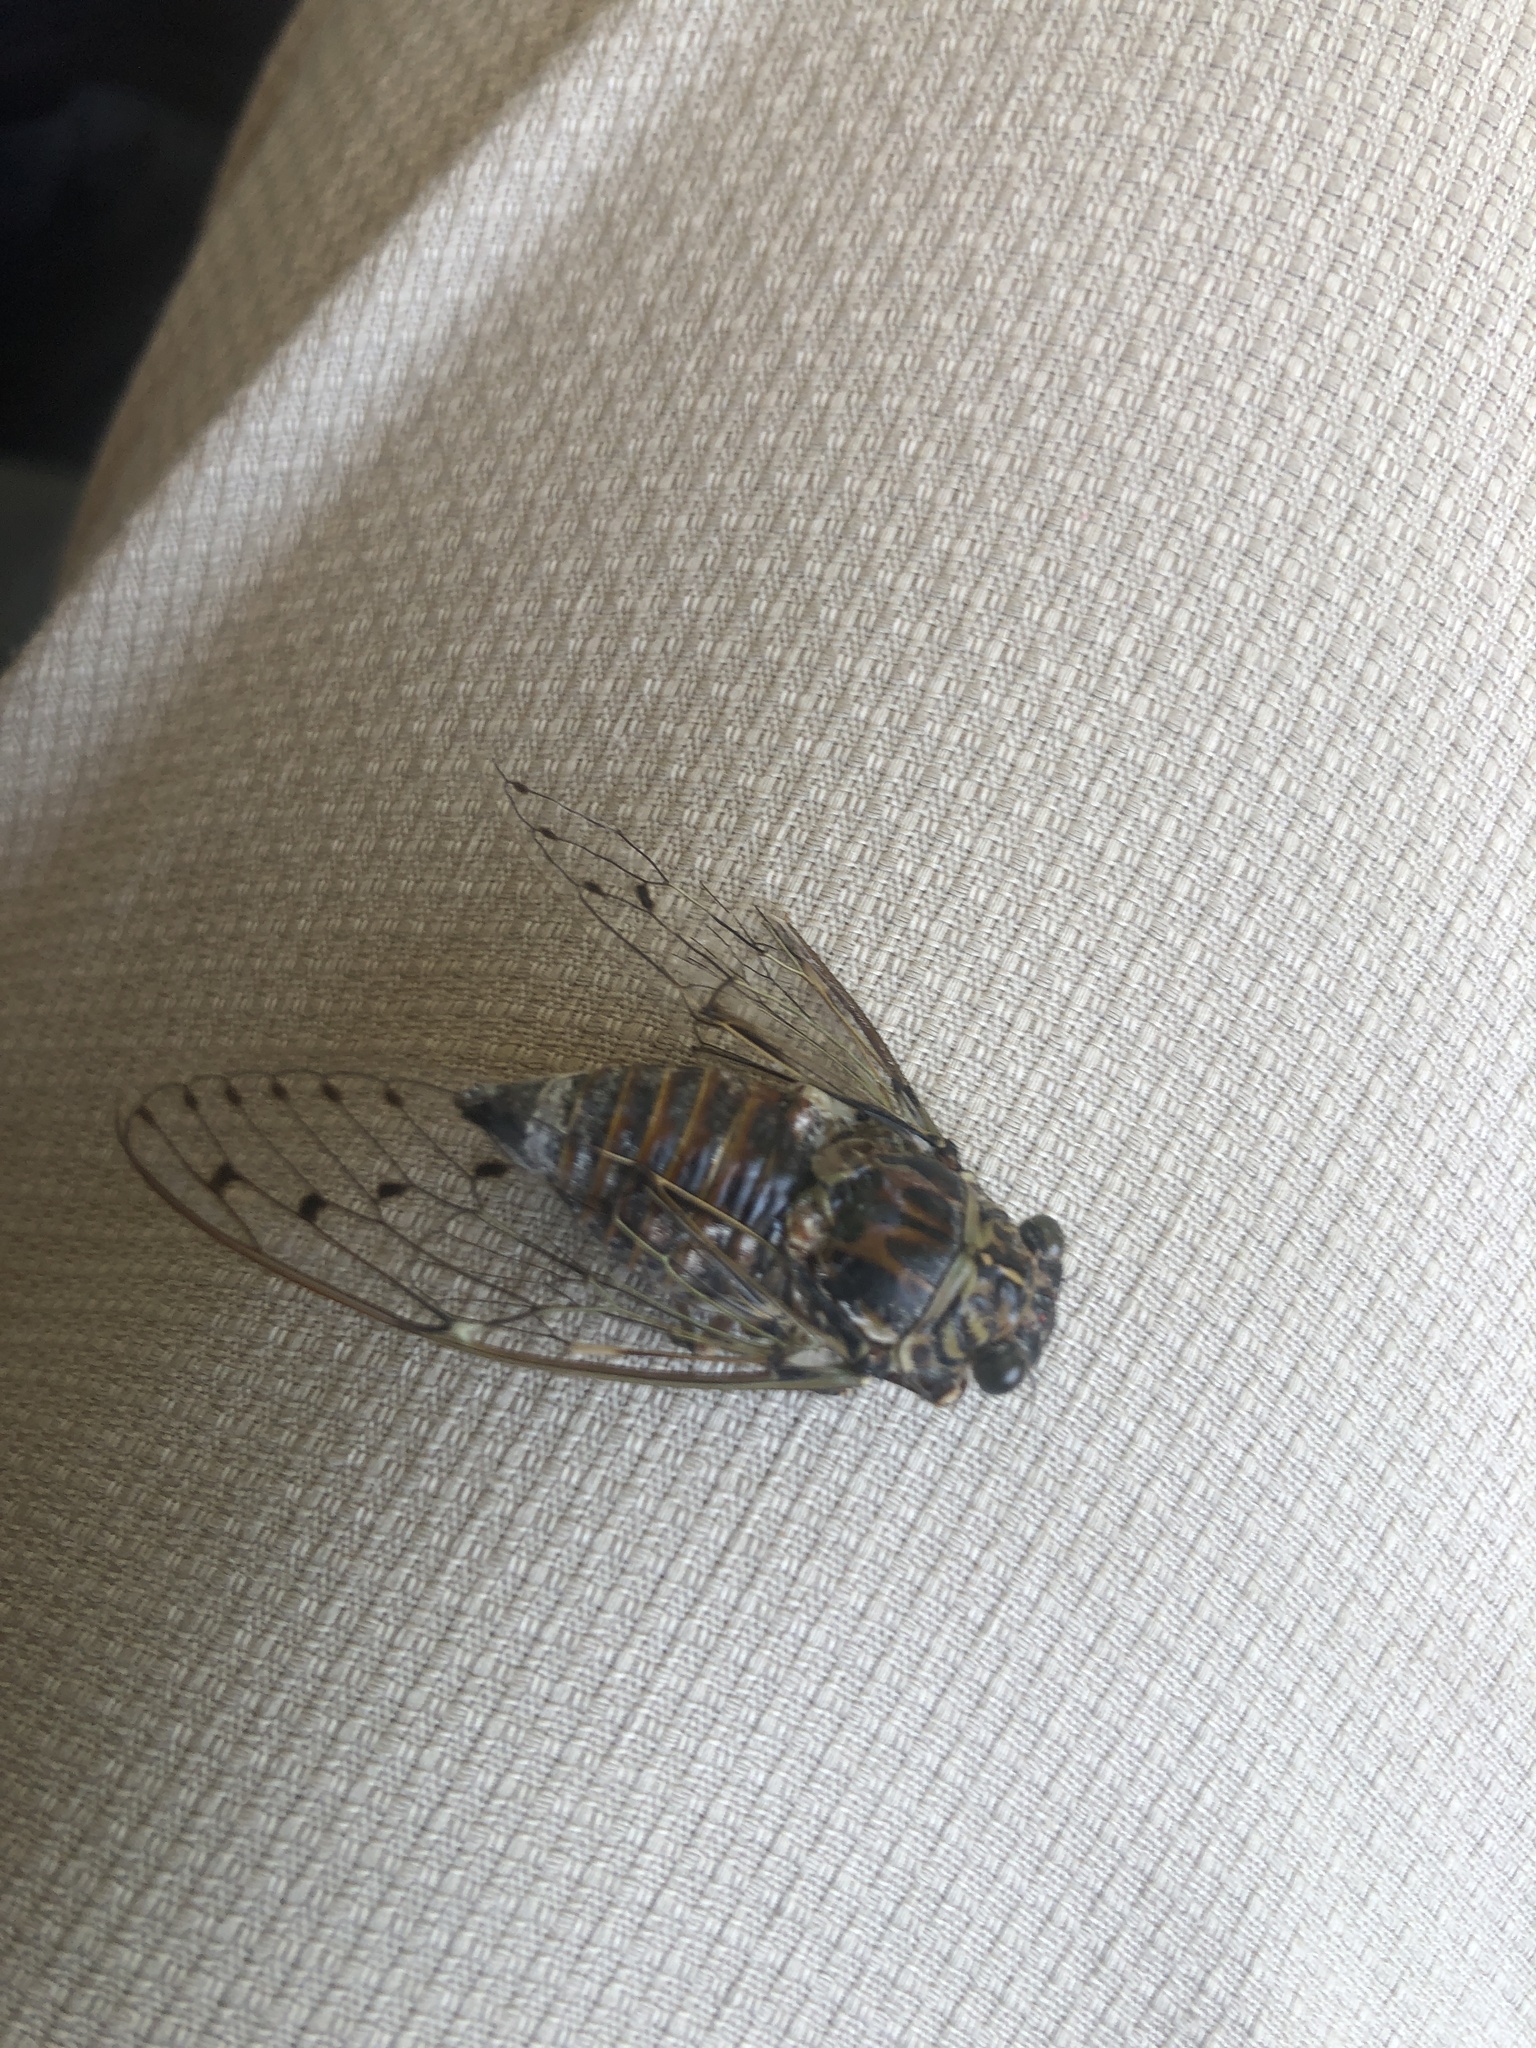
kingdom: Animalia
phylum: Arthropoda
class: Insecta
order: Hemiptera
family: Cicadidae
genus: Cicada
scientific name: Cicada orni
